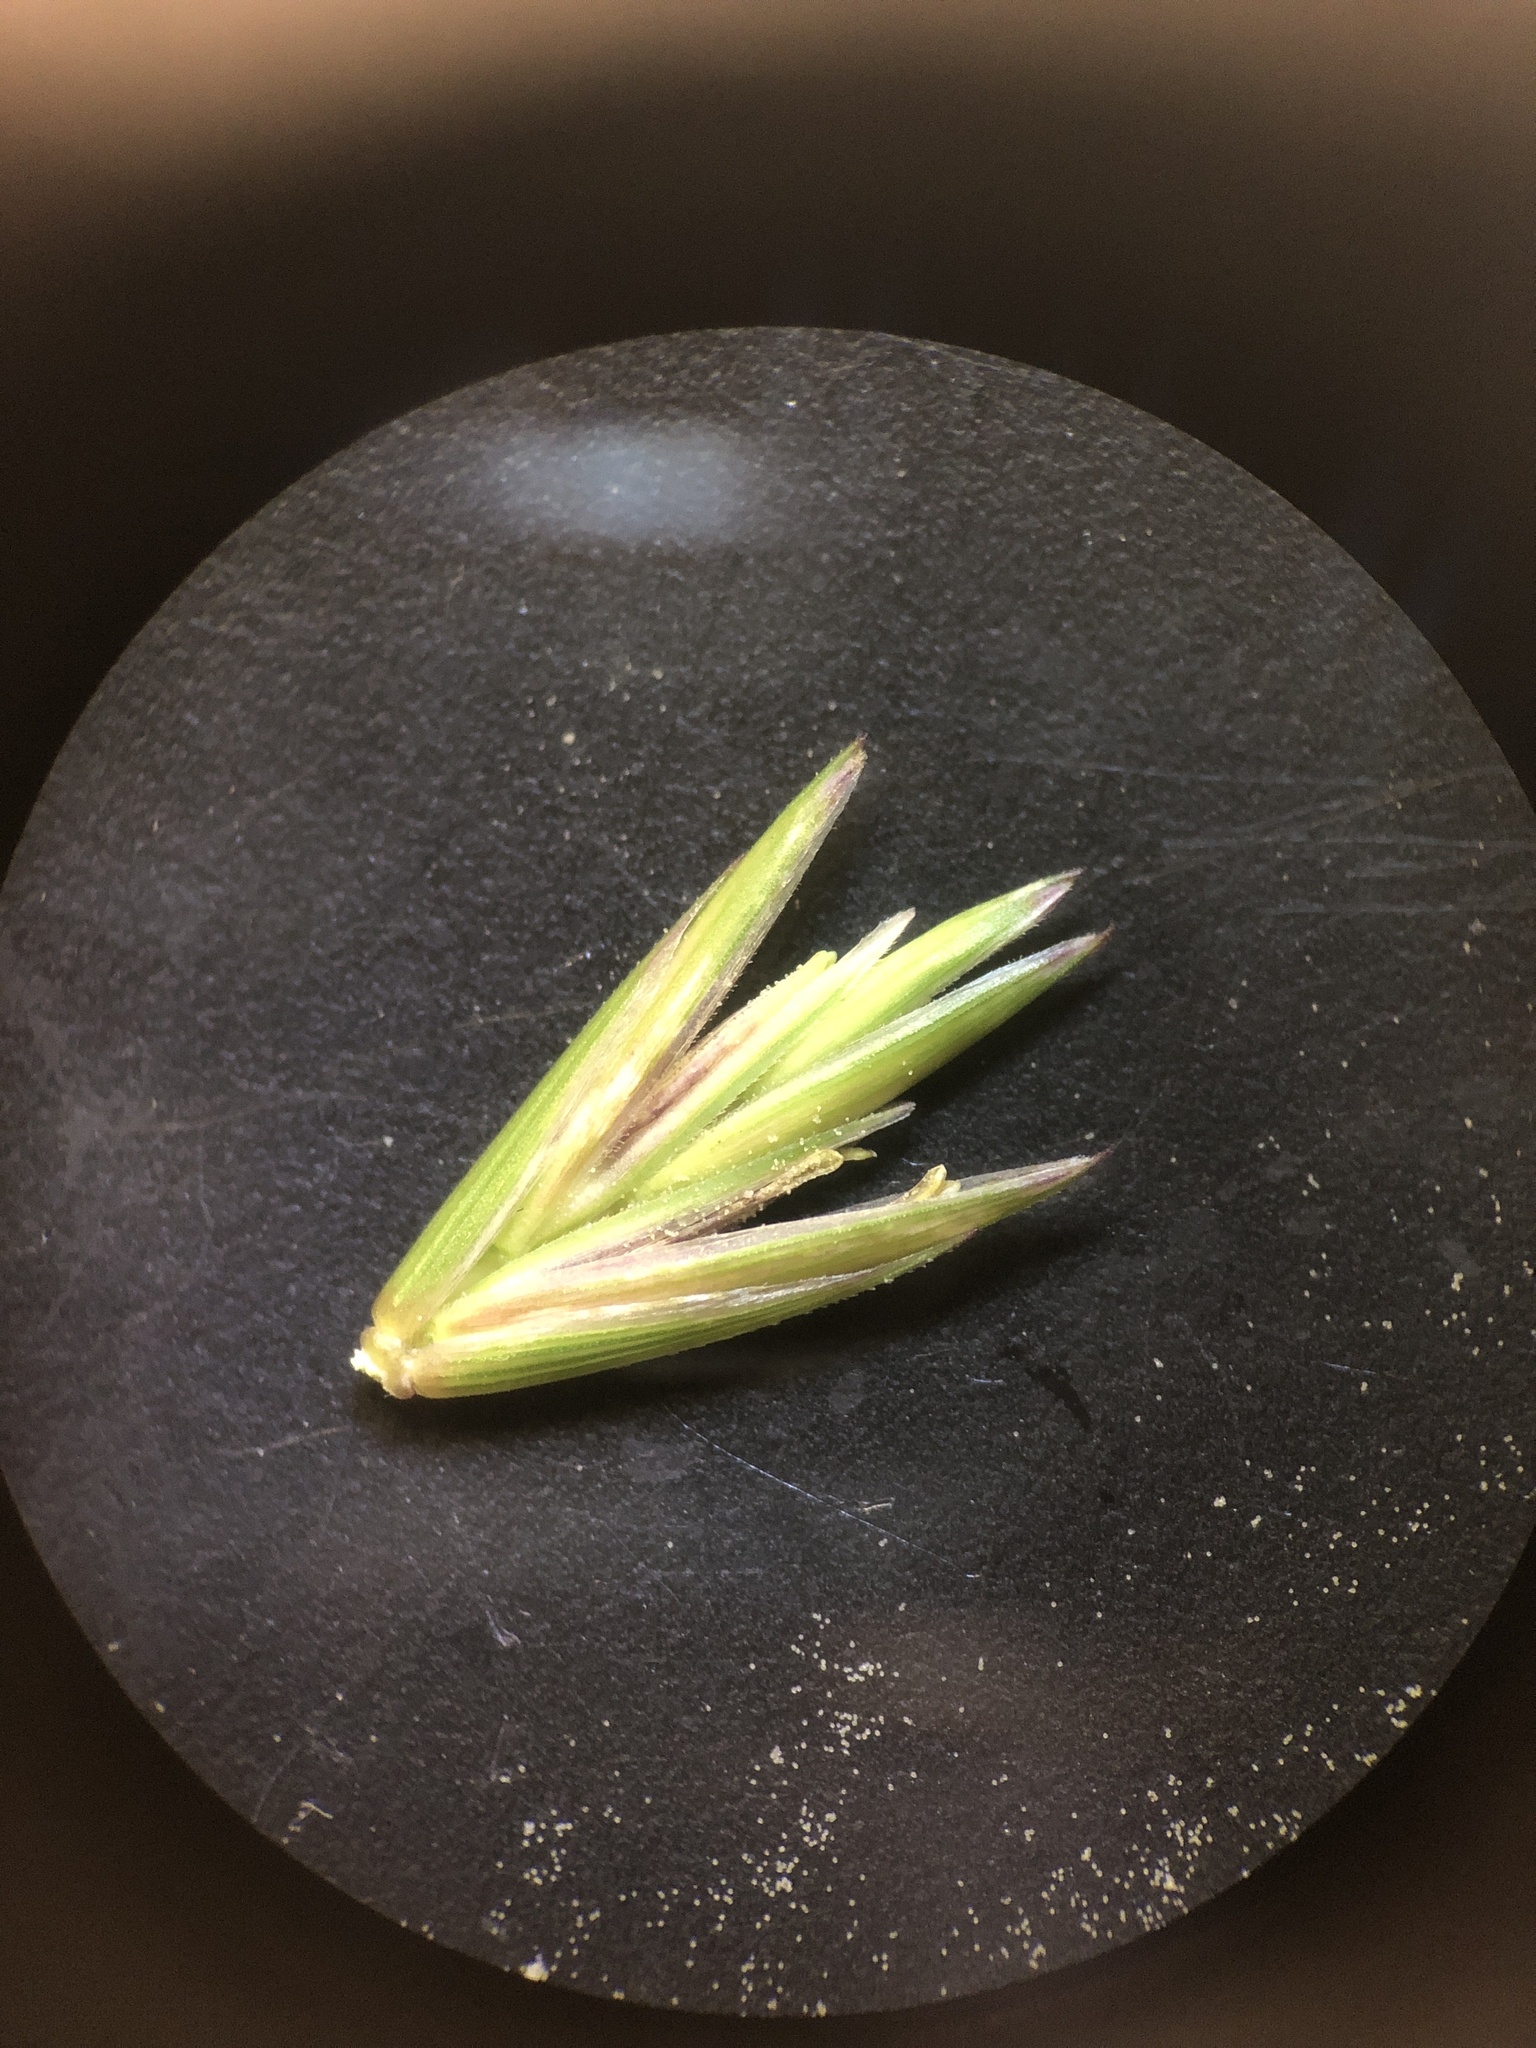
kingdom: Plantae
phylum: Tracheophyta
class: Liliopsida
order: Poales
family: Poaceae
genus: Elymus
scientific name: Elymus repens
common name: Quackgrass
